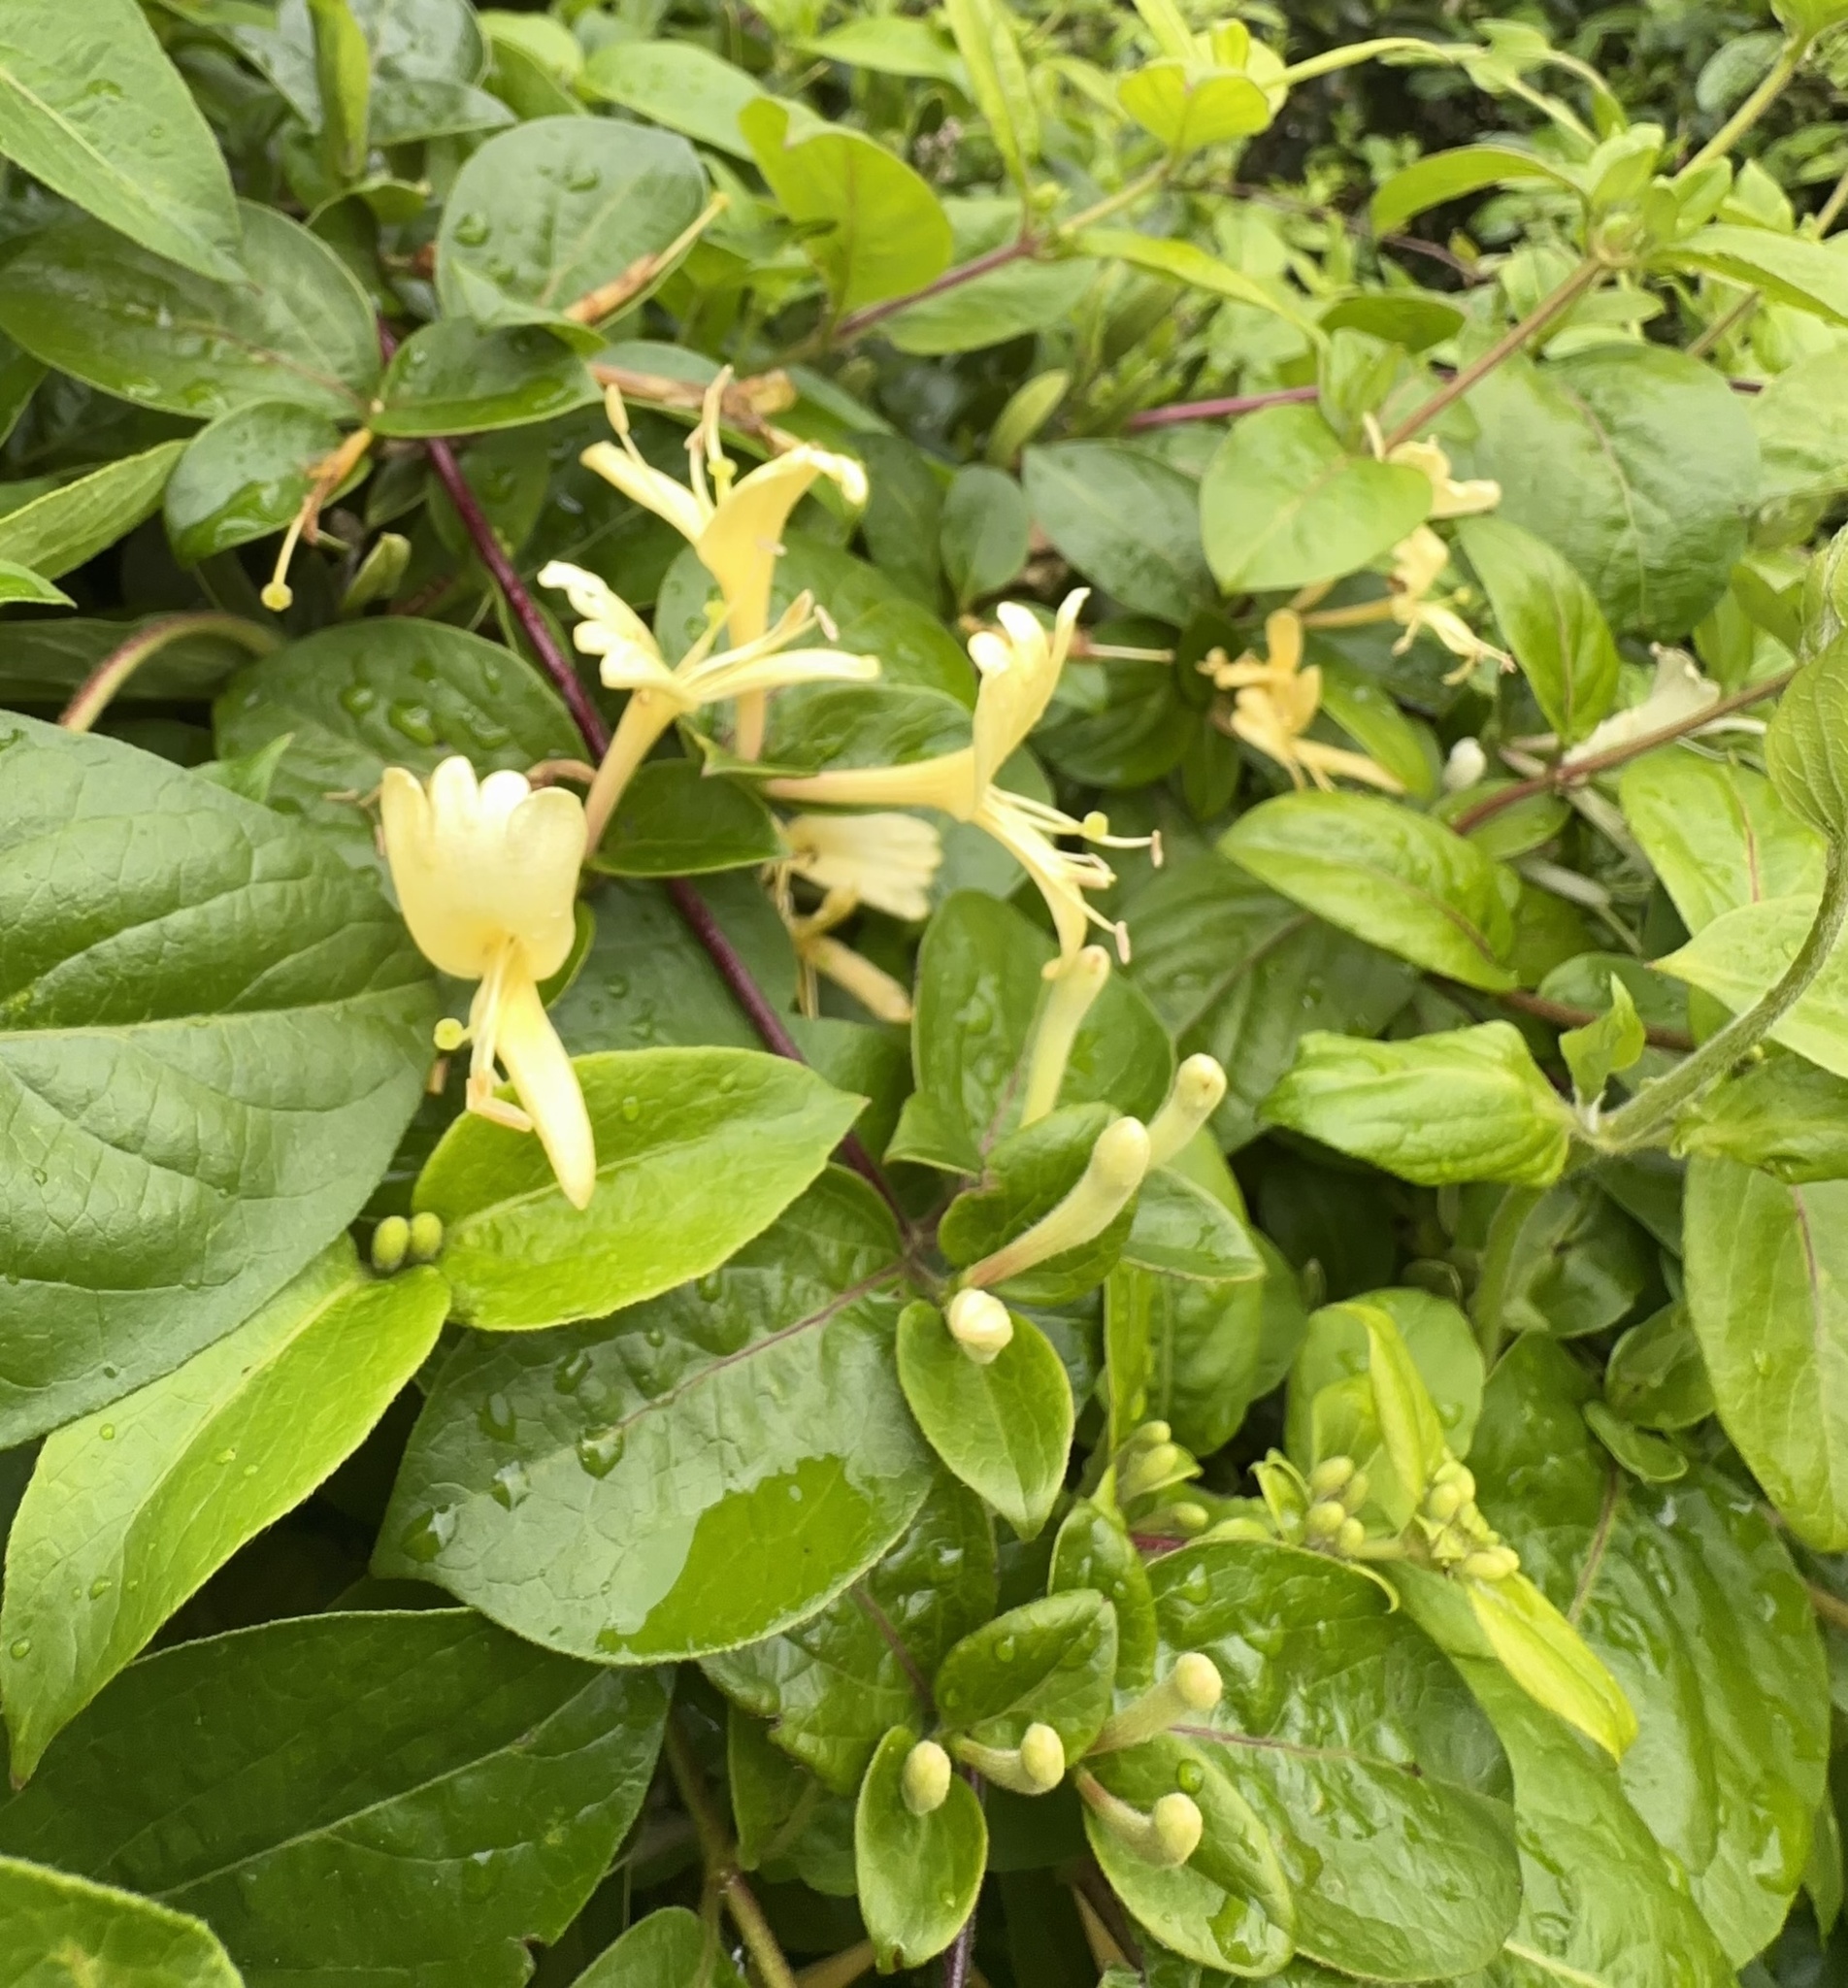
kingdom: Plantae
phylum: Tracheophyta
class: Magnoliopsida
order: Dipsacales
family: Caprifoliaceae
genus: Lonicera
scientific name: Lonicera japonica
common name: Japanese honeysuckle
